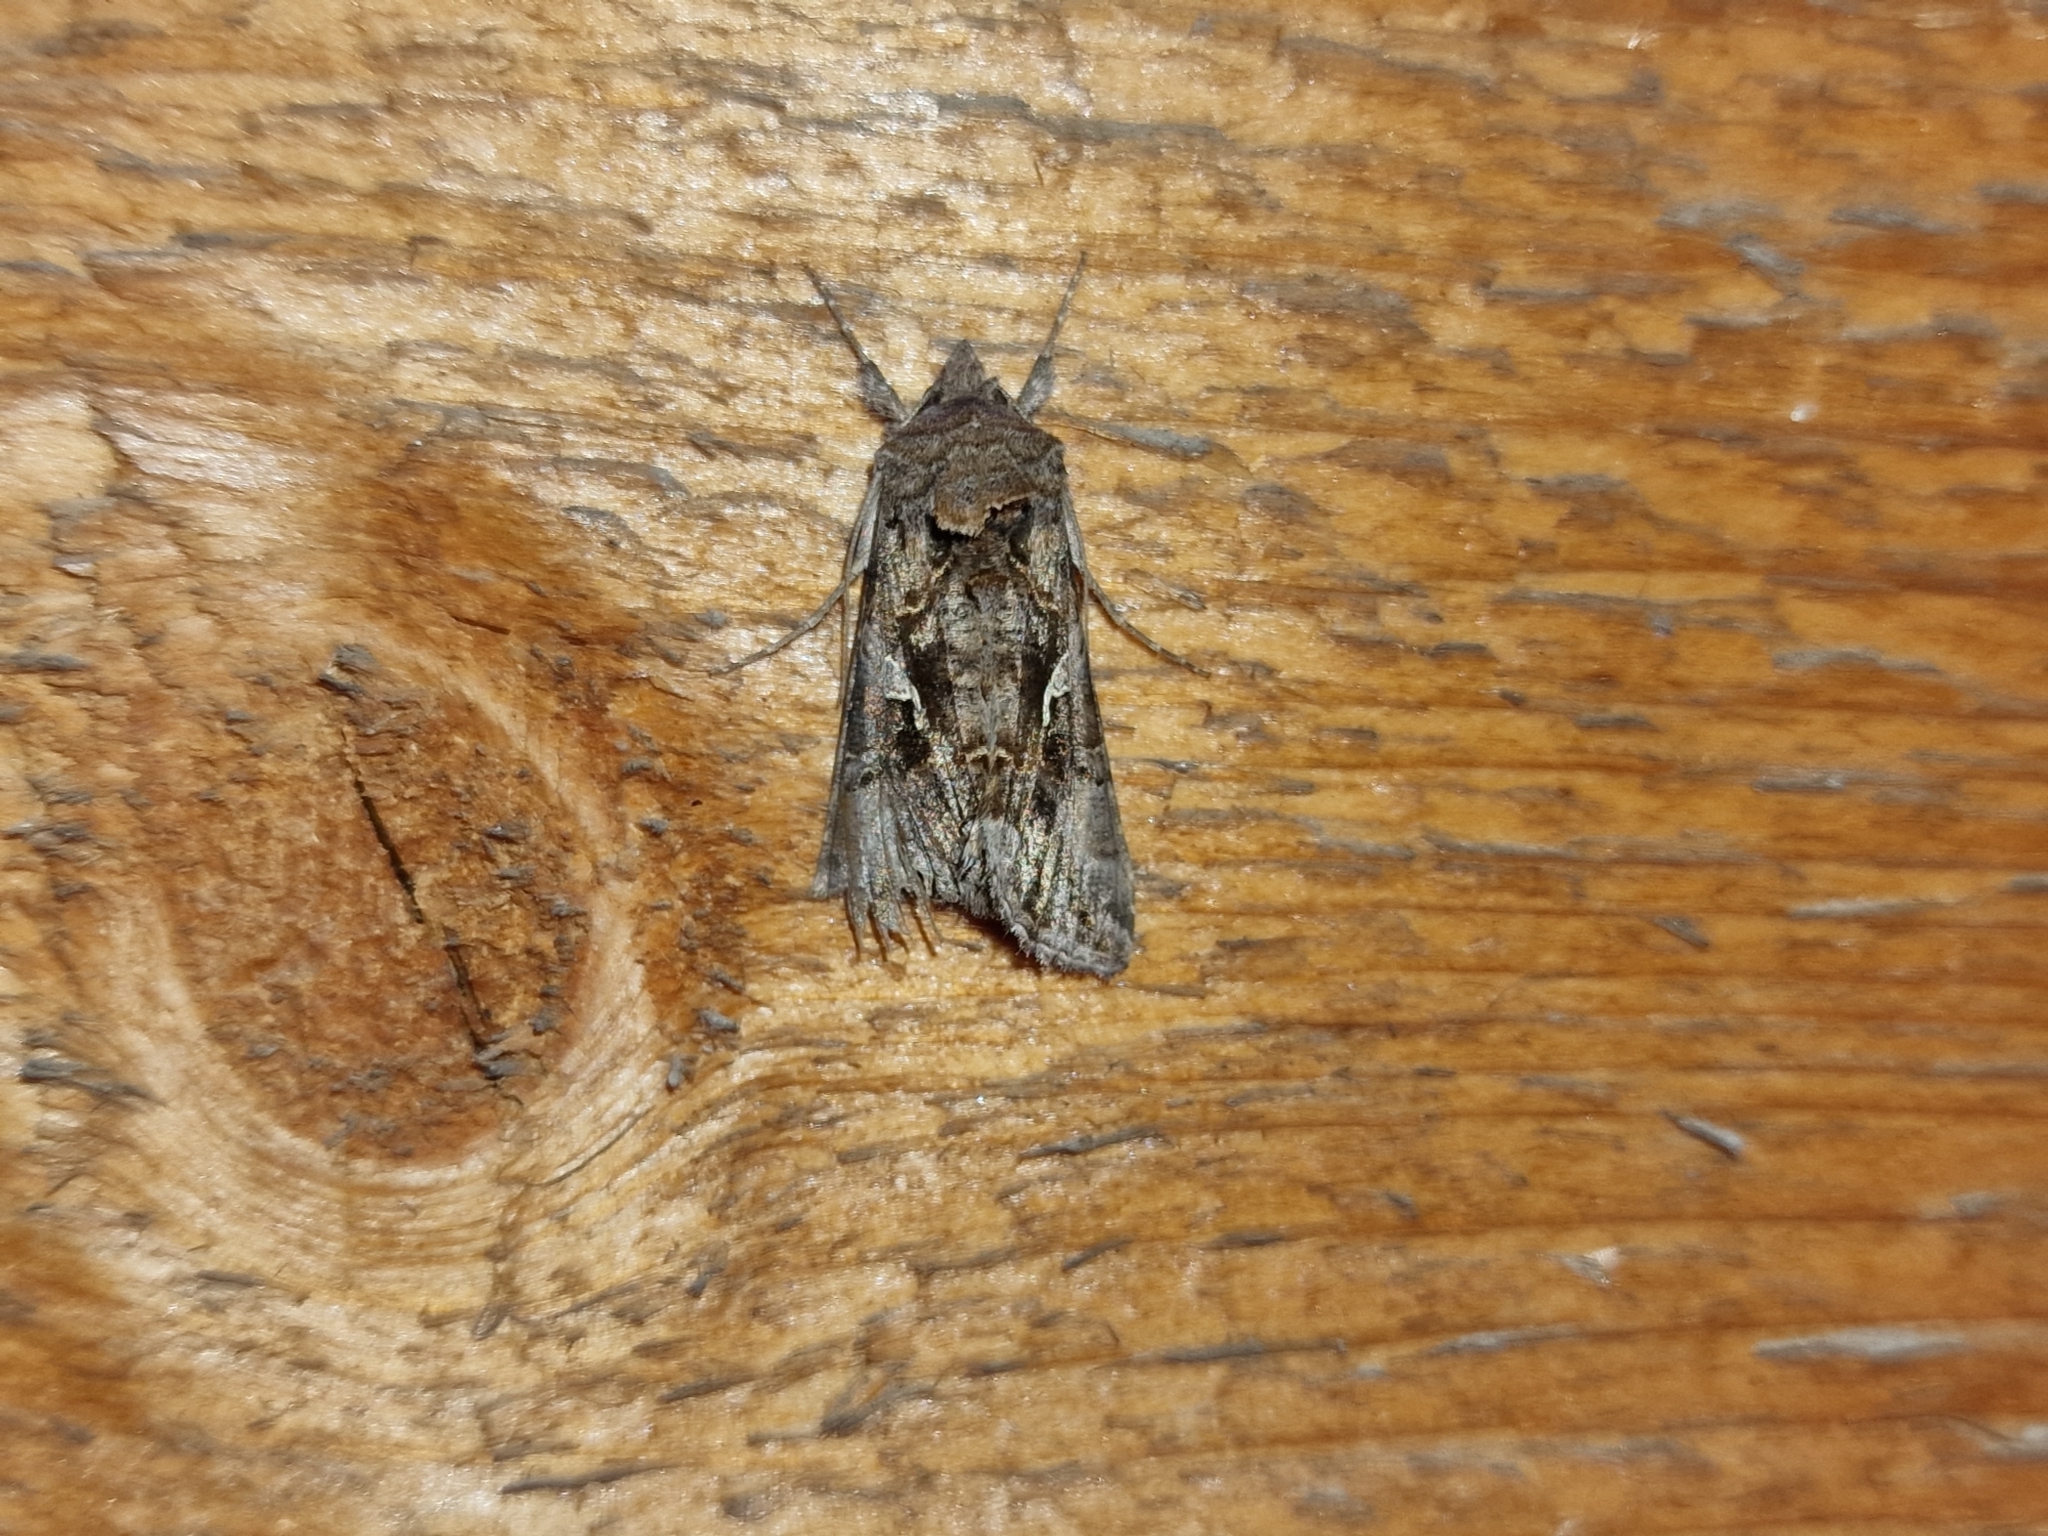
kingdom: Animalia
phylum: Arthropoda
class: Insecta
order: Lepidoptera
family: Noctuidae
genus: Autographa
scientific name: Autographa gamma
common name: Silver y
